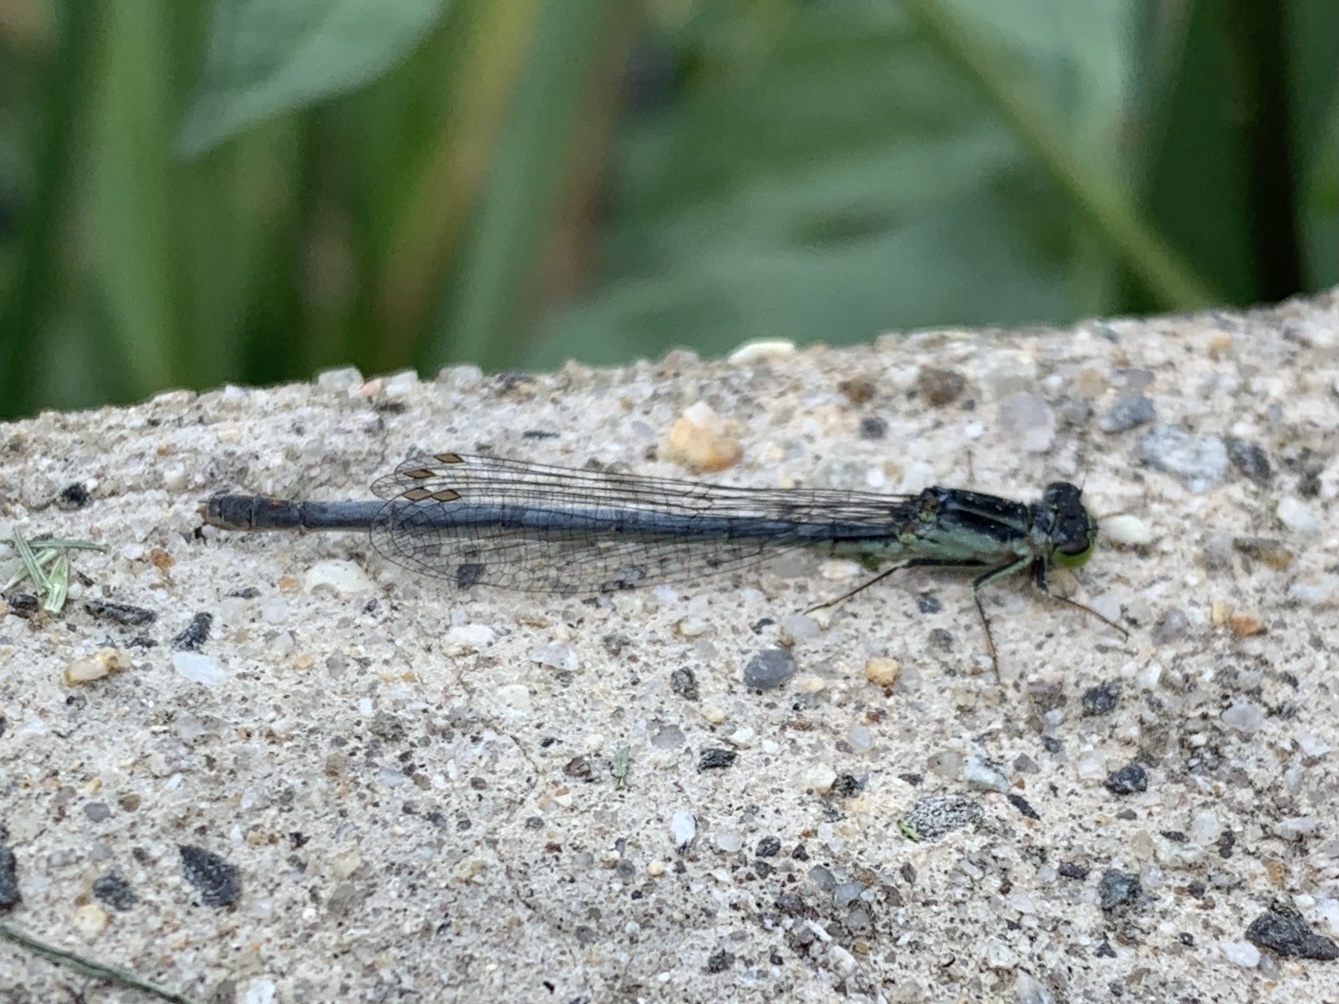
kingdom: Animalia
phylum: Arthropoda
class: Insecta
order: Odonata
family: Coenagrionidae
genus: Ischnura
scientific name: Ischnura verticalis
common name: Eastern forktail
